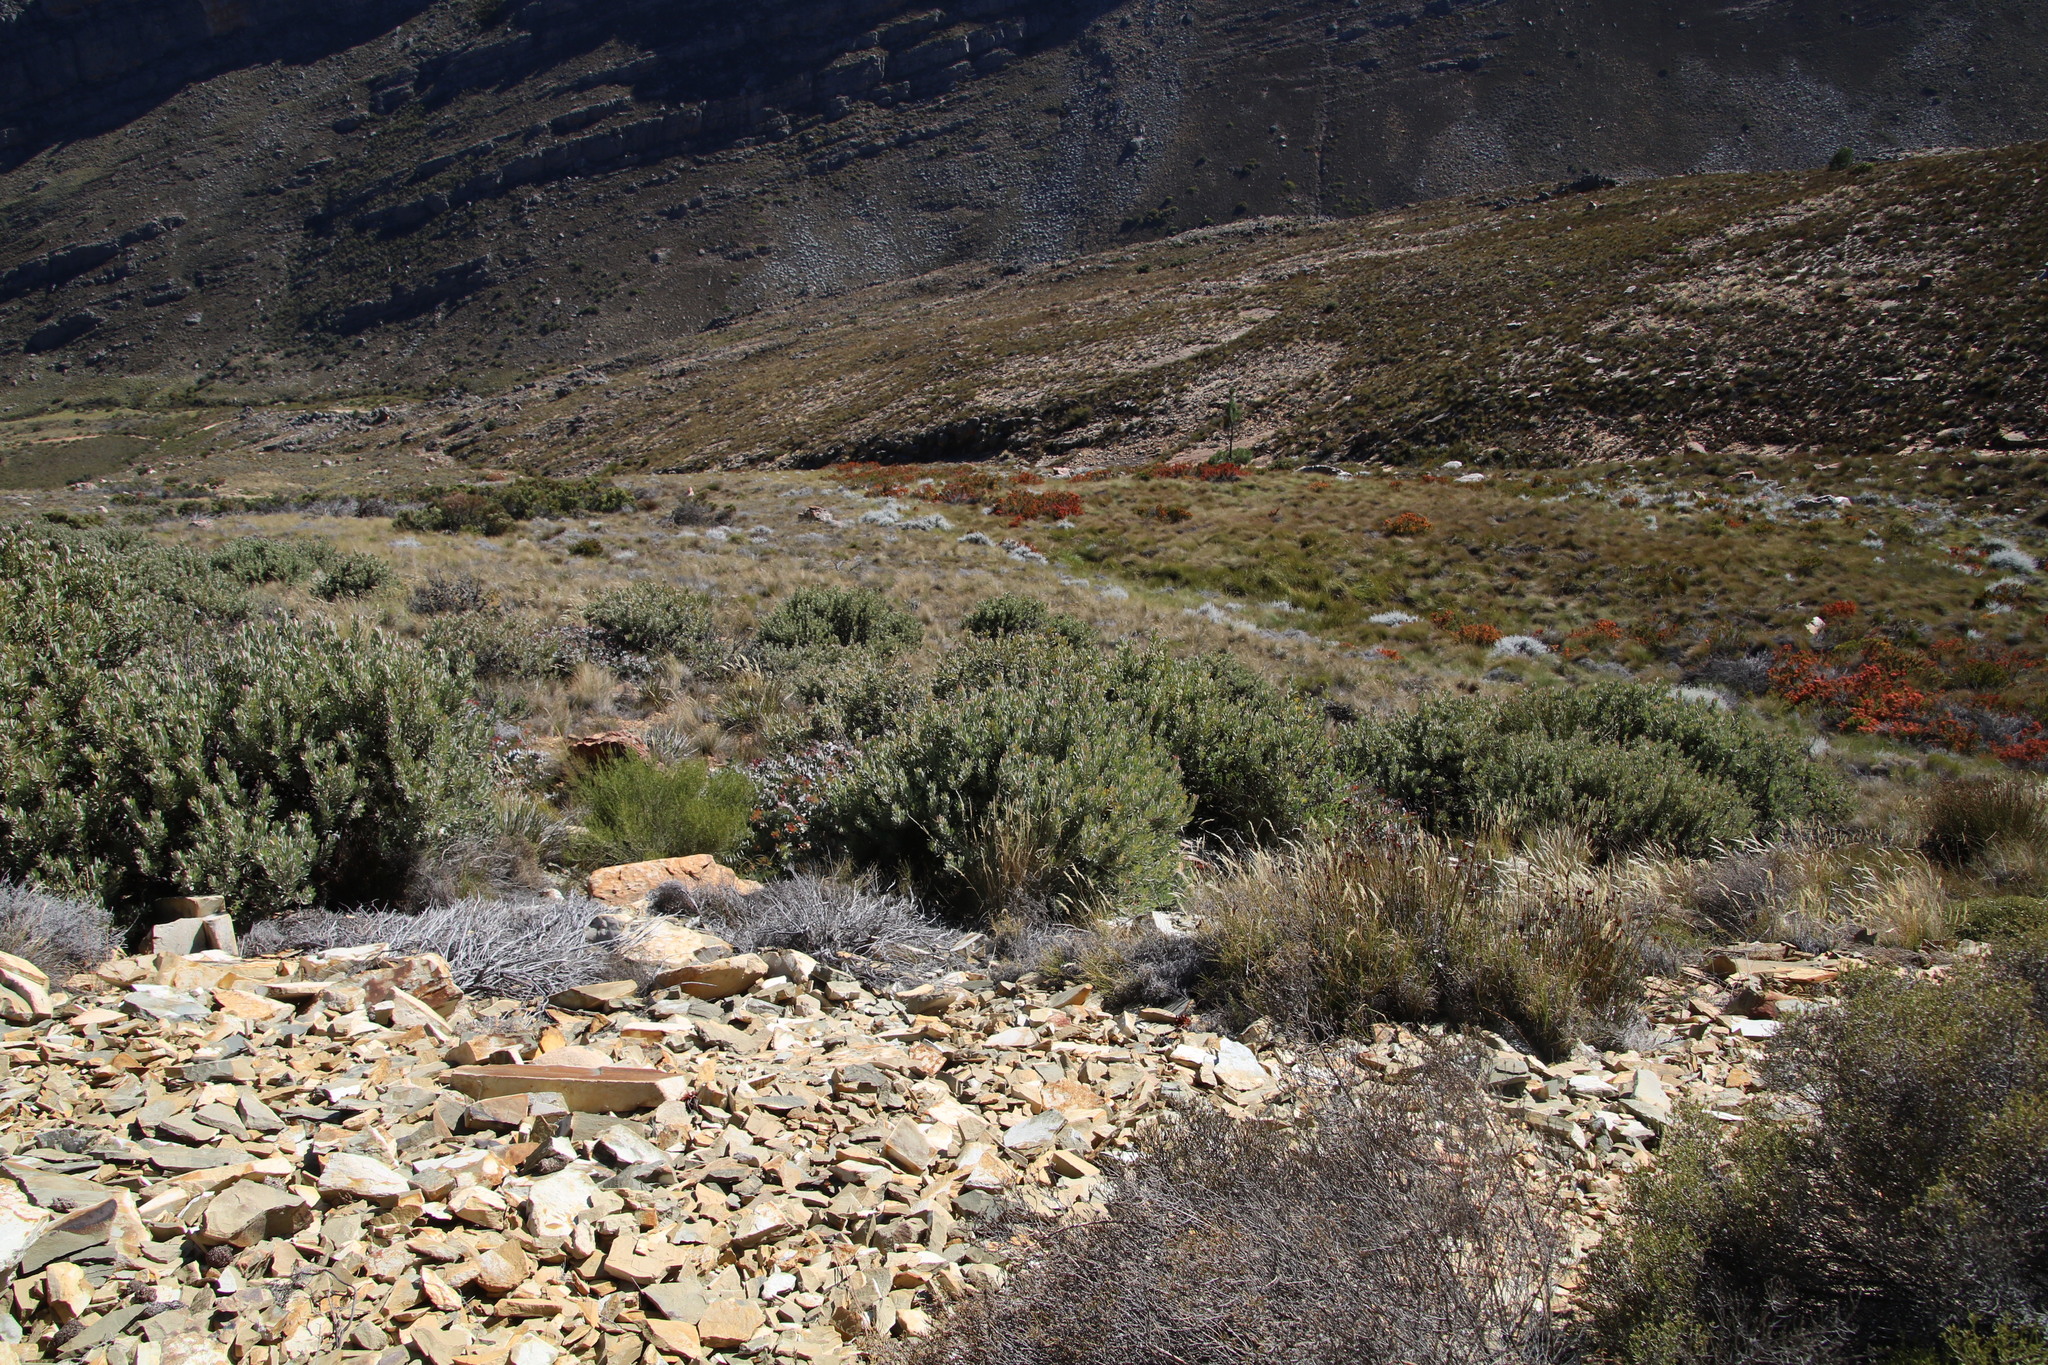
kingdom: Plantae
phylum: Tracheophyta
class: Magnoliopsida
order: Proteales
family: Proteaceae
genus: Protea
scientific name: Protea pendula
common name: Nodding sugarbush
